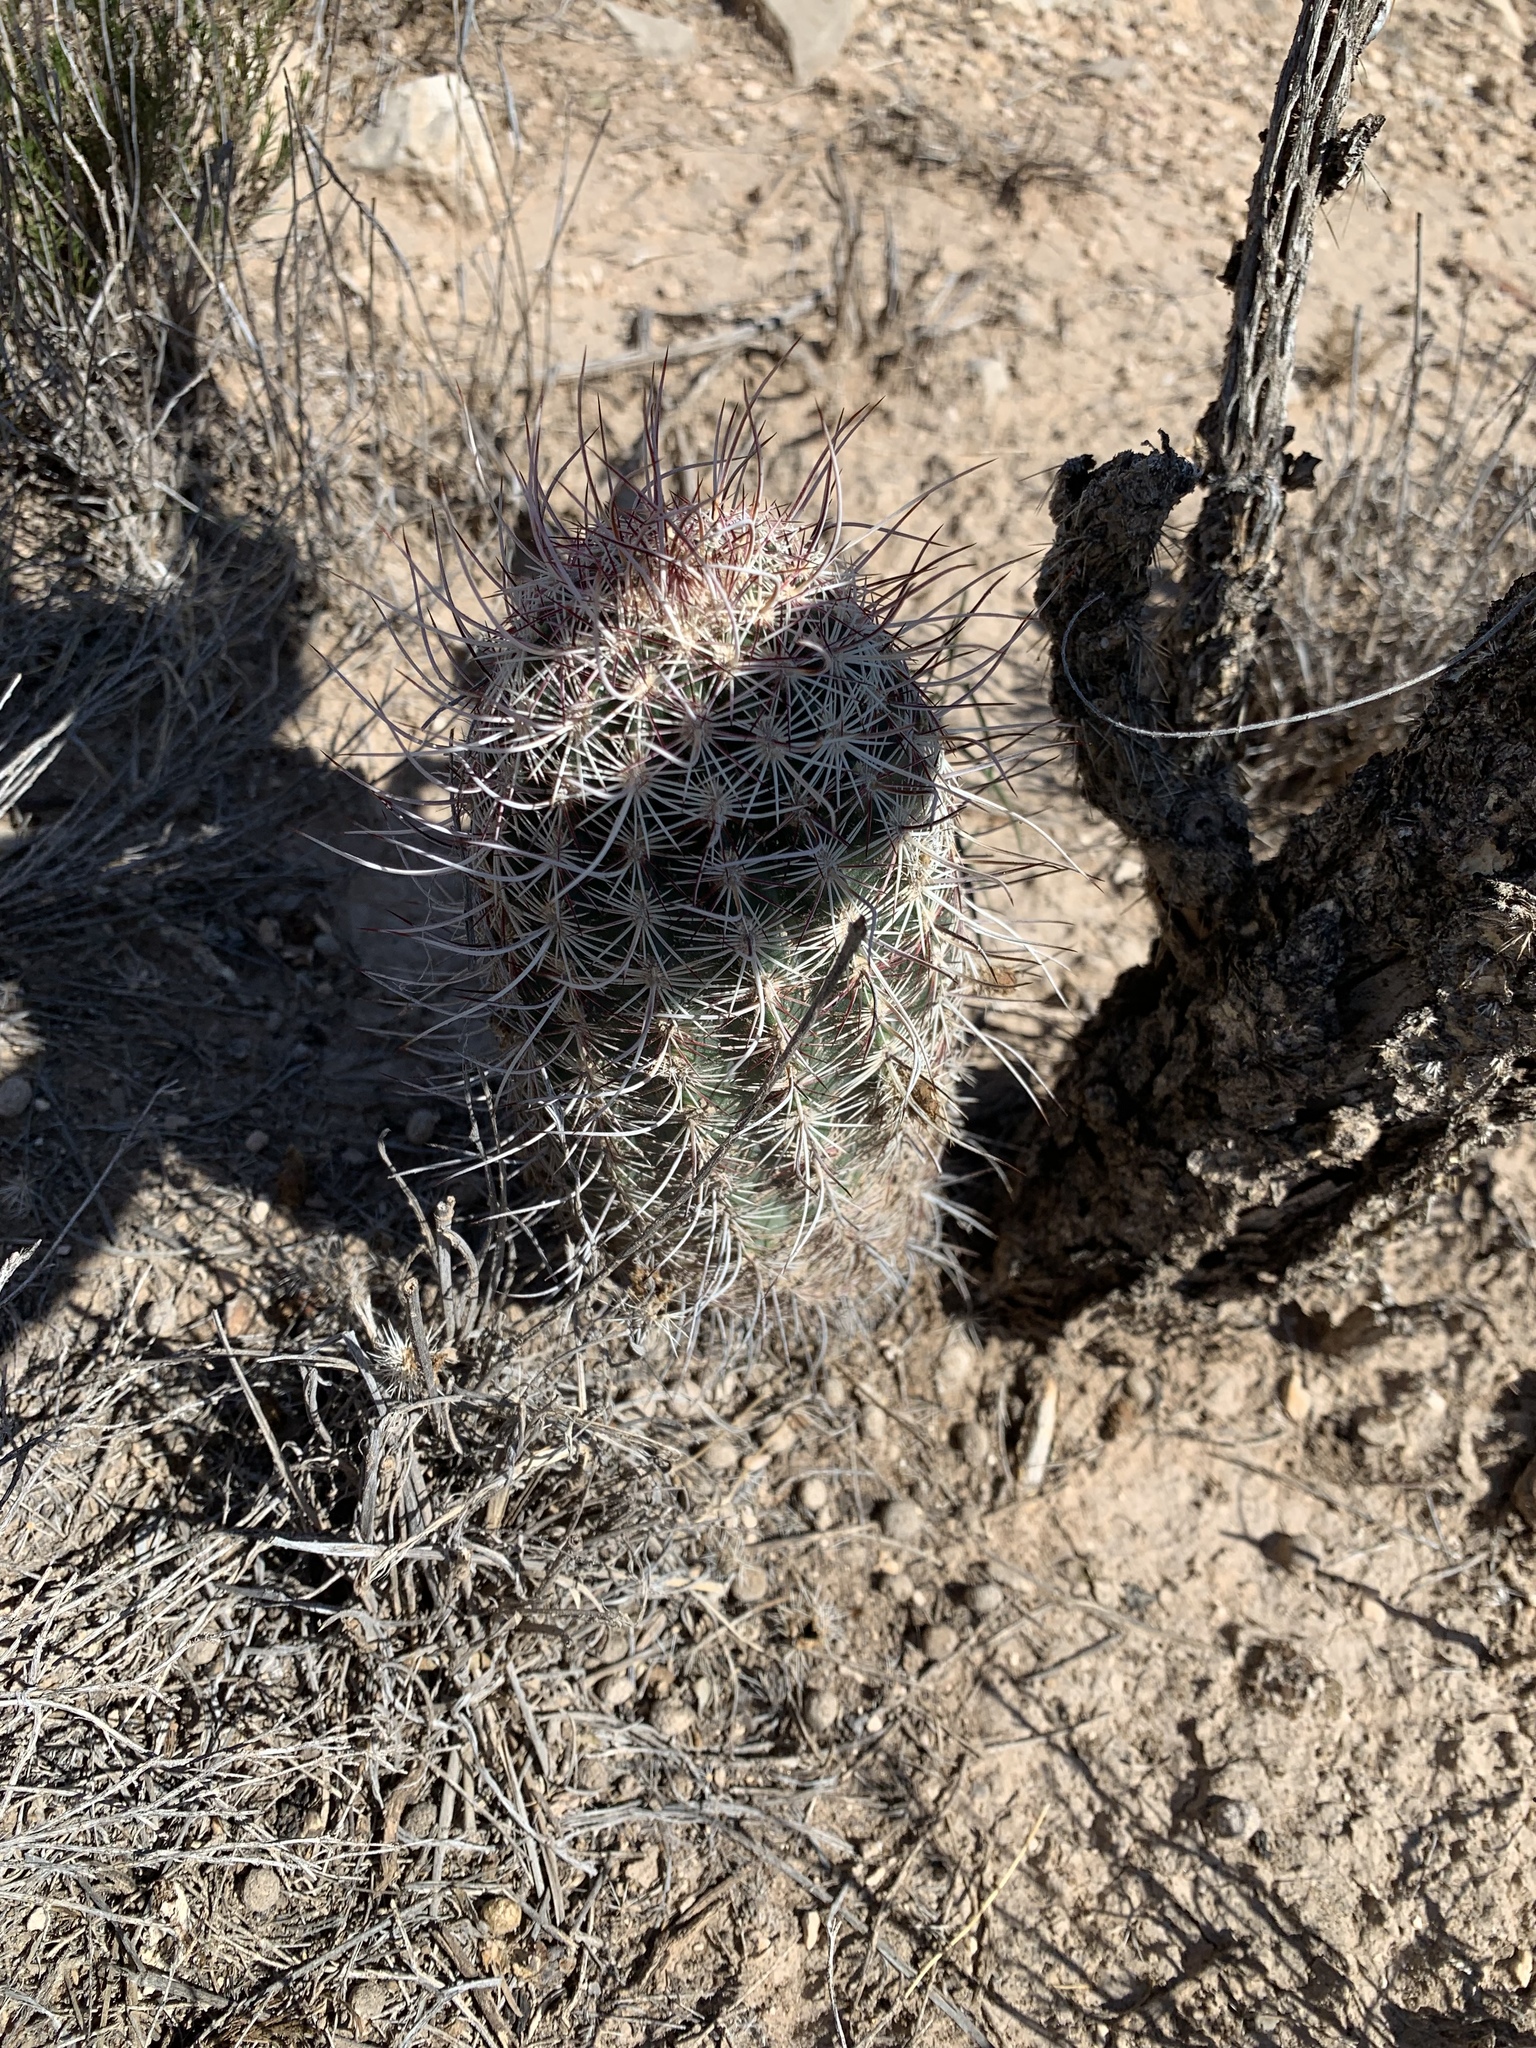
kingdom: Plantae
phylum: Tracheophyta
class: Magnoliopsida
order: Caryophyllales
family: Cactaceae
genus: Echinocereus
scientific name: Echinocereus viridiflorus
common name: Nylon hedgehog cactus
